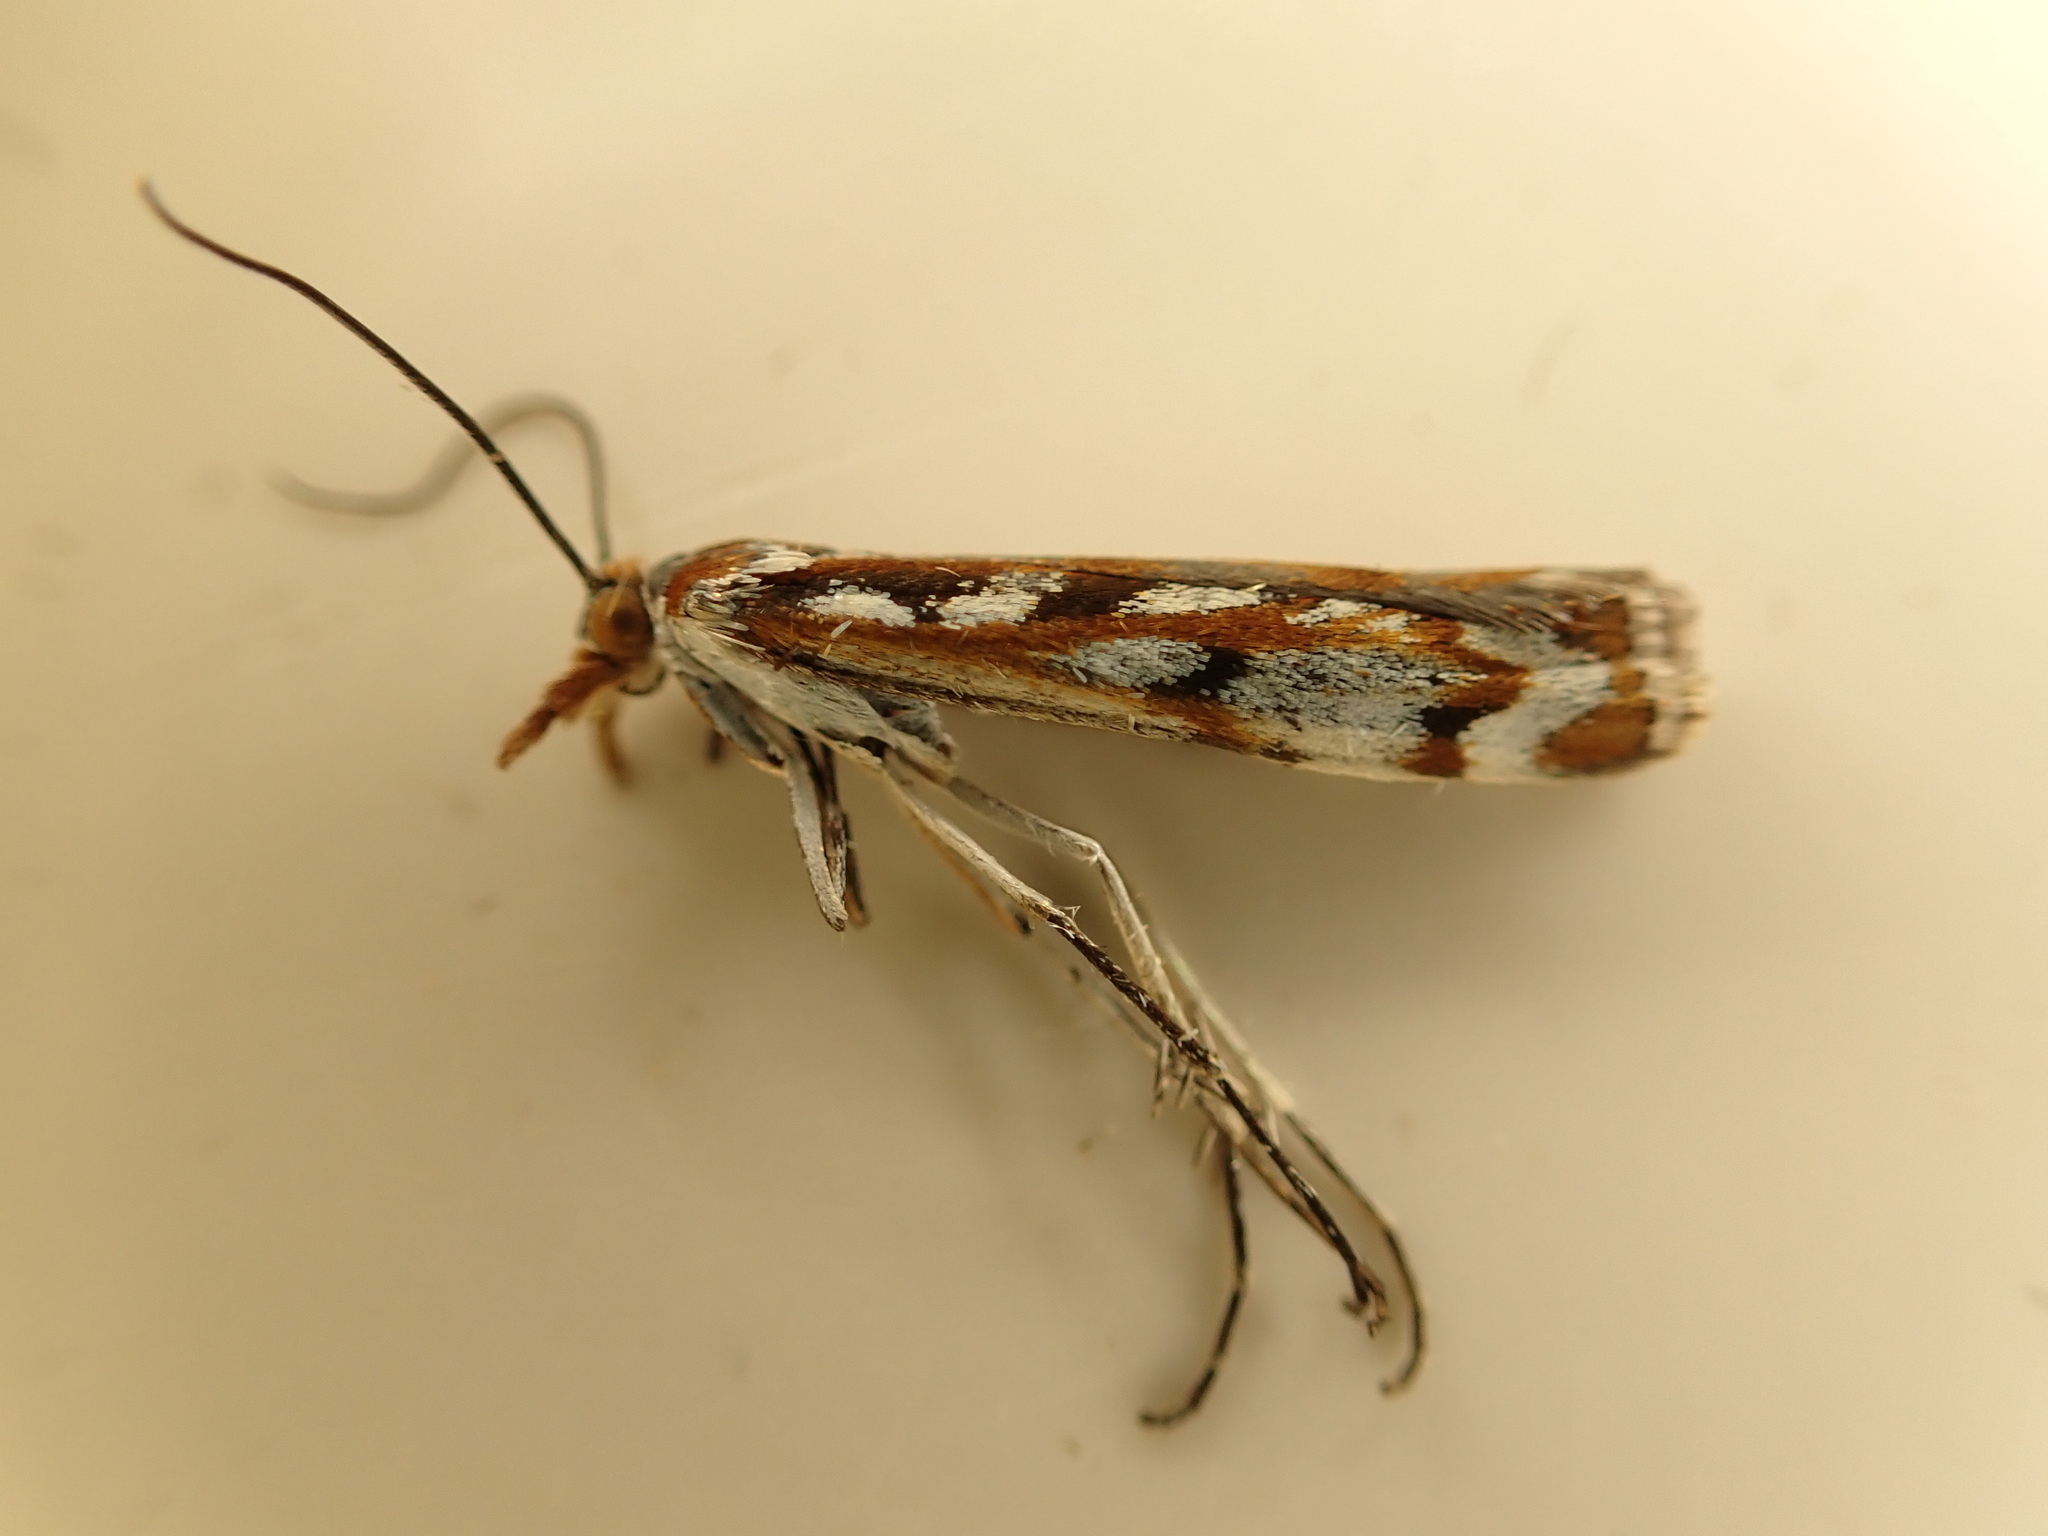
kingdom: Animalia
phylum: Arthropoda
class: Insecta
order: Lepidoptera
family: Crambidae
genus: Orocrambus
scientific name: Orocrambus xanthogrammus
